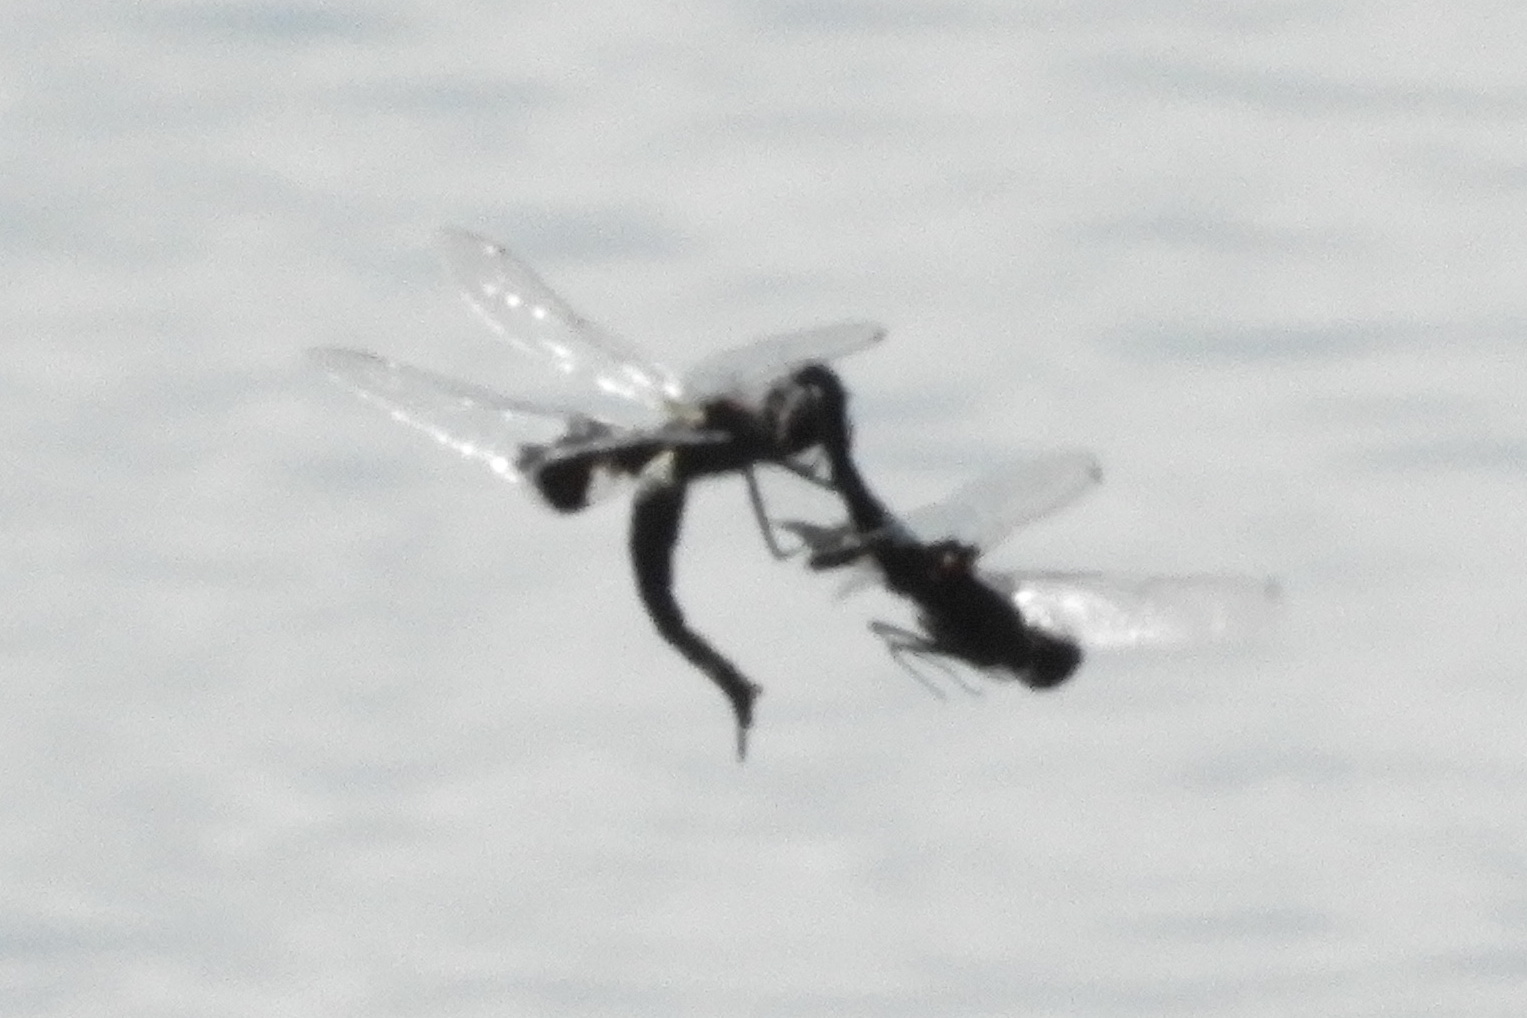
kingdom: Animalia
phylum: Arthropoda
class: Insecta
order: Odonata
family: Libellulidae
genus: Tramea
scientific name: Tramea lacerata
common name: Black saddlebags
